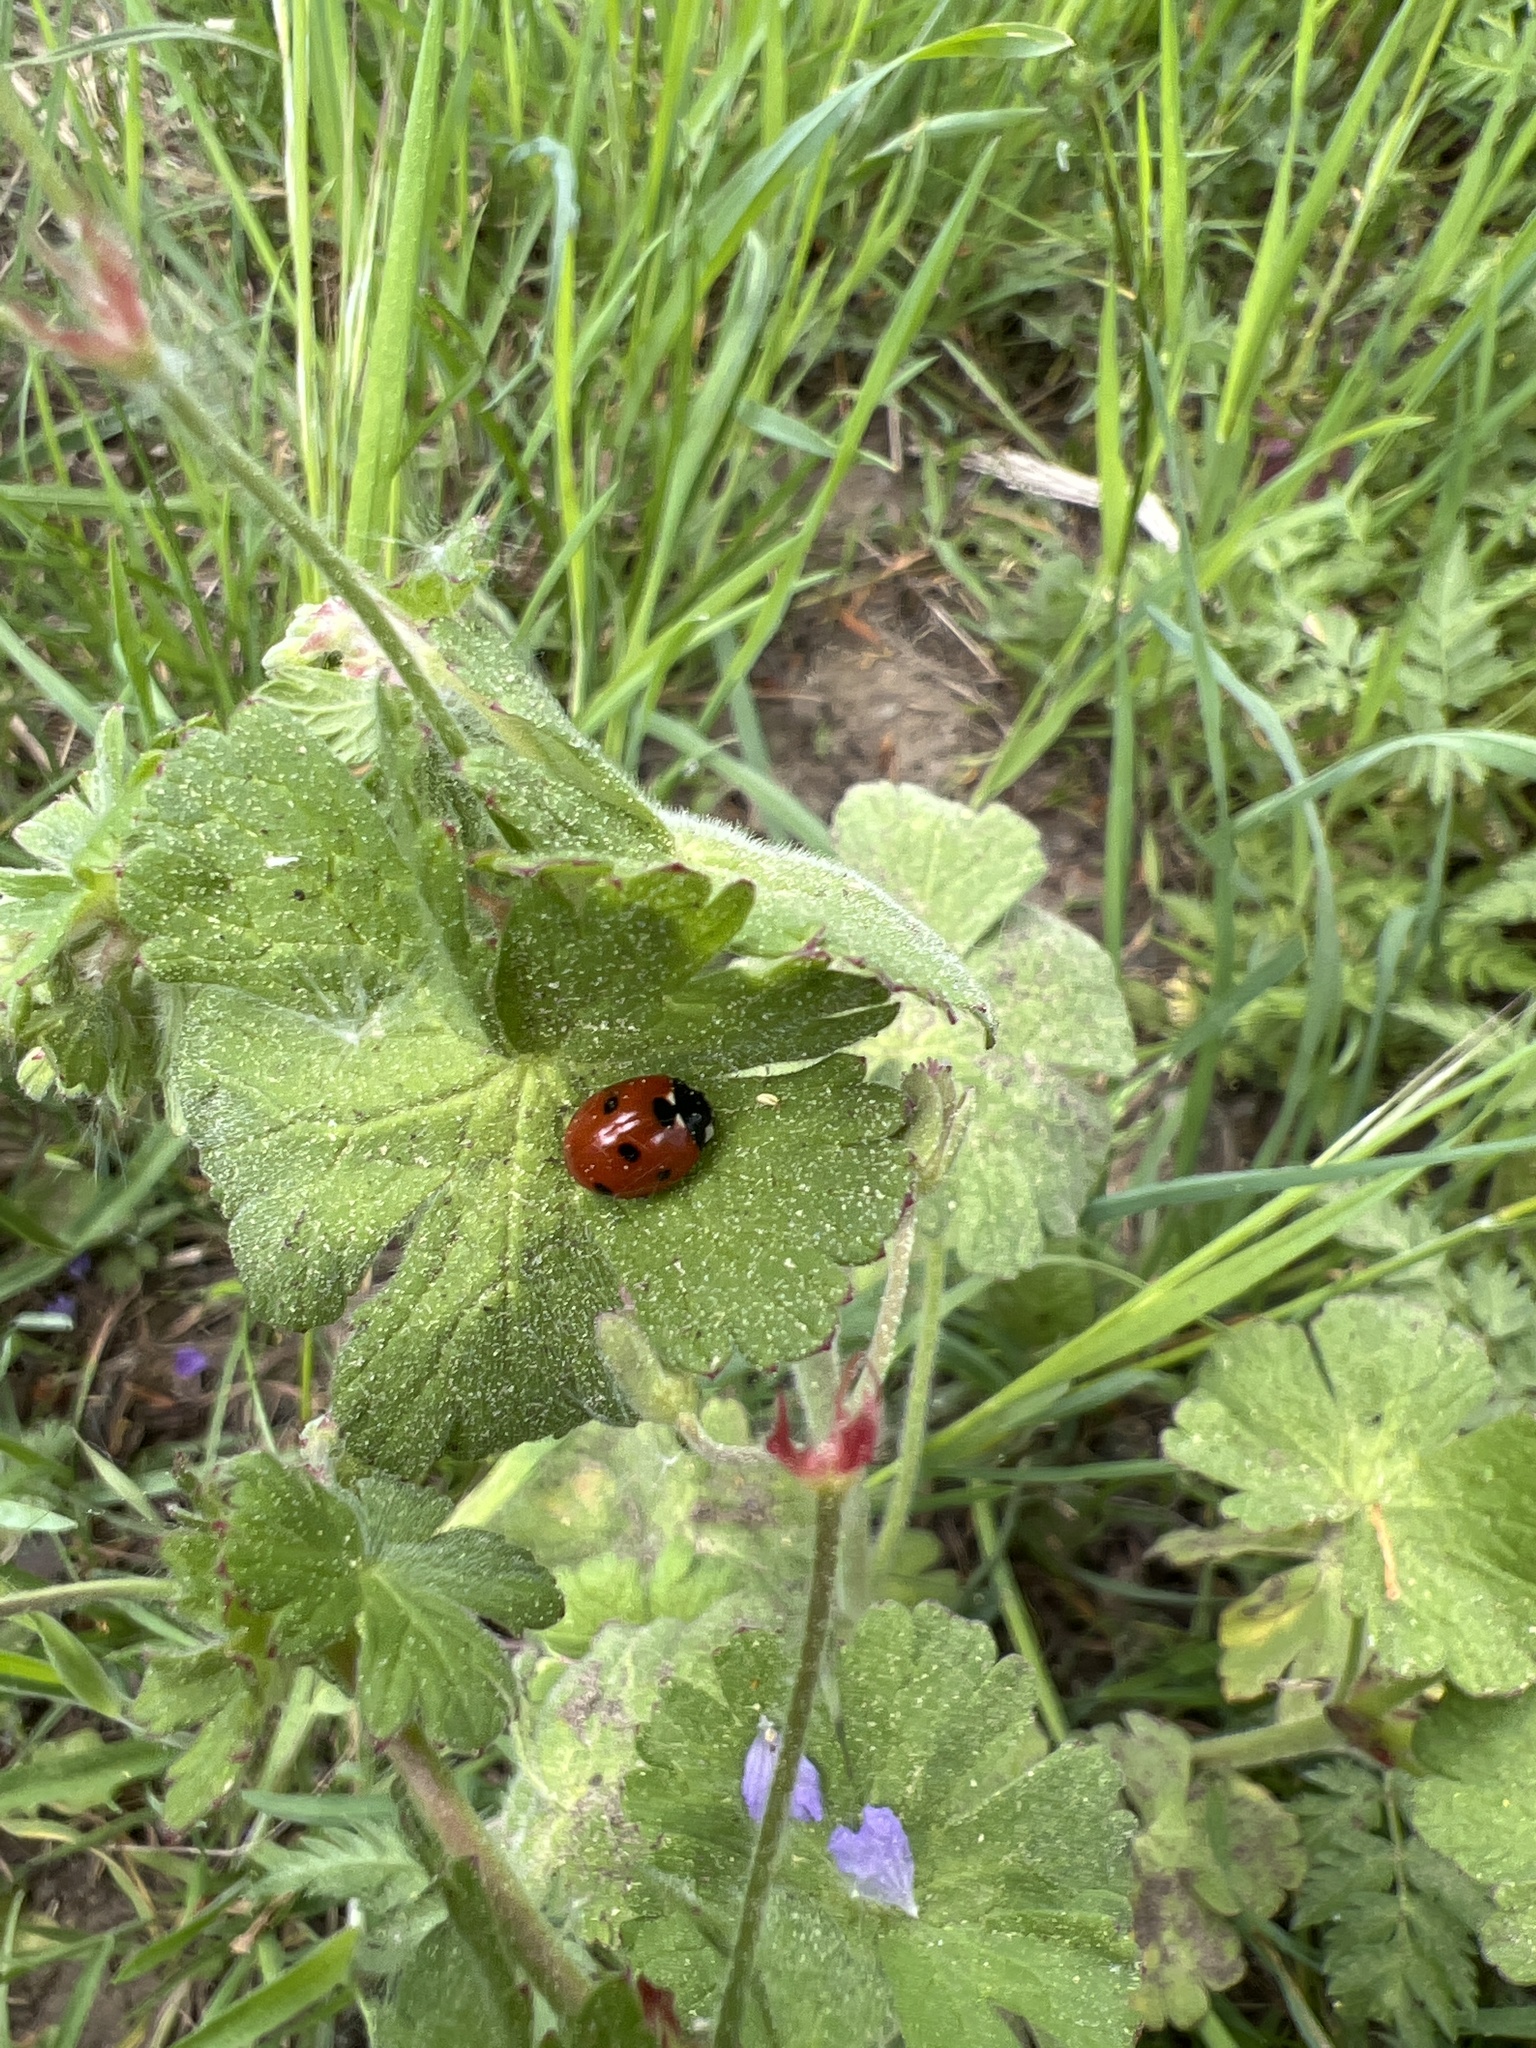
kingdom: Animalia
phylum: Arthropoda
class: Insecta
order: Coleoptera
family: Coccinellidae
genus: Coccinella
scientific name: Coccinella septempunctata
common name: Sevenspotted lady beetle
